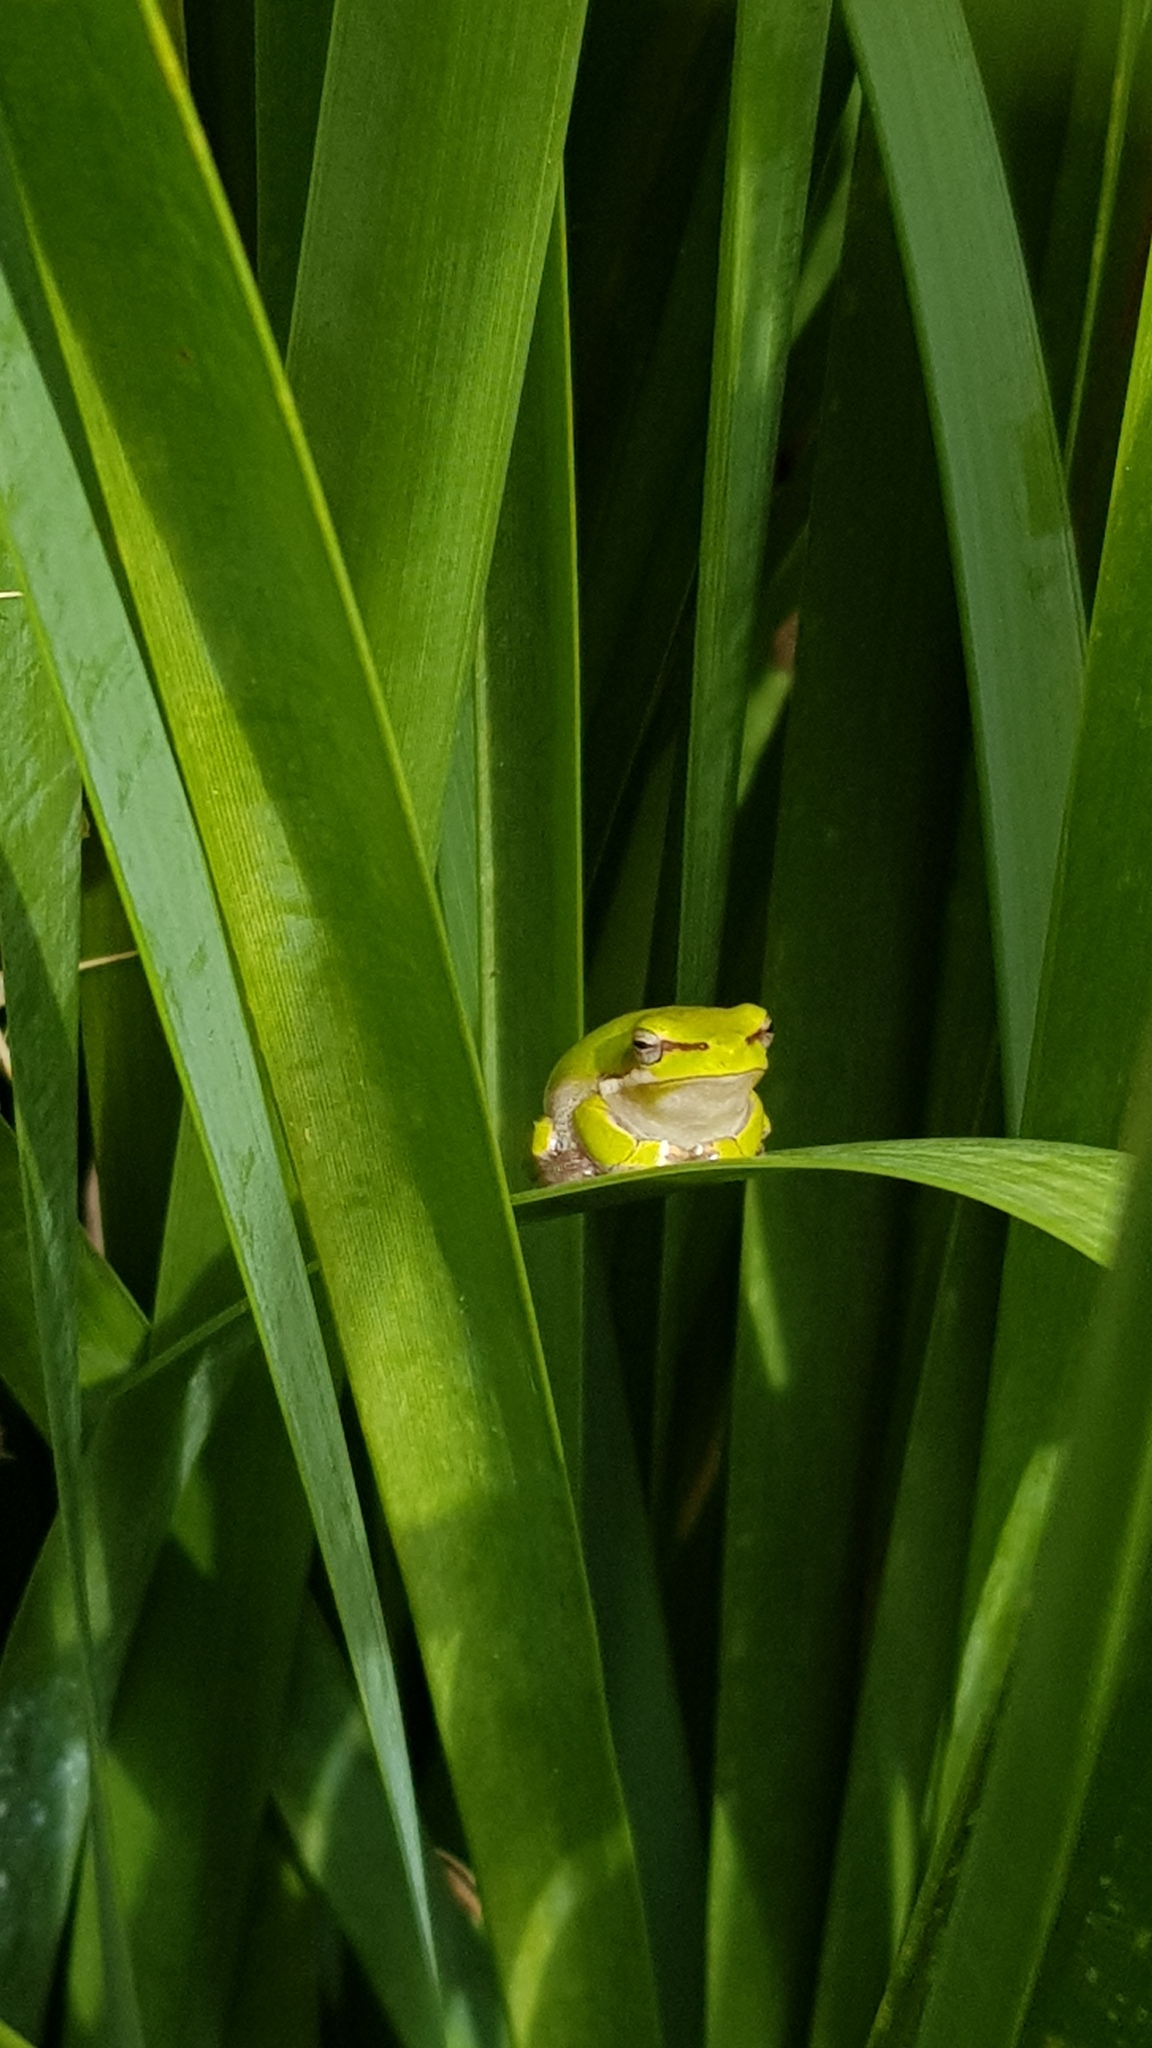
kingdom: Animalia
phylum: Chordata
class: Amphibia
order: Anura
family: Pelodryadidae
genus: Litoria
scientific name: Litoria fallax
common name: Eastern dwarf treefrog
